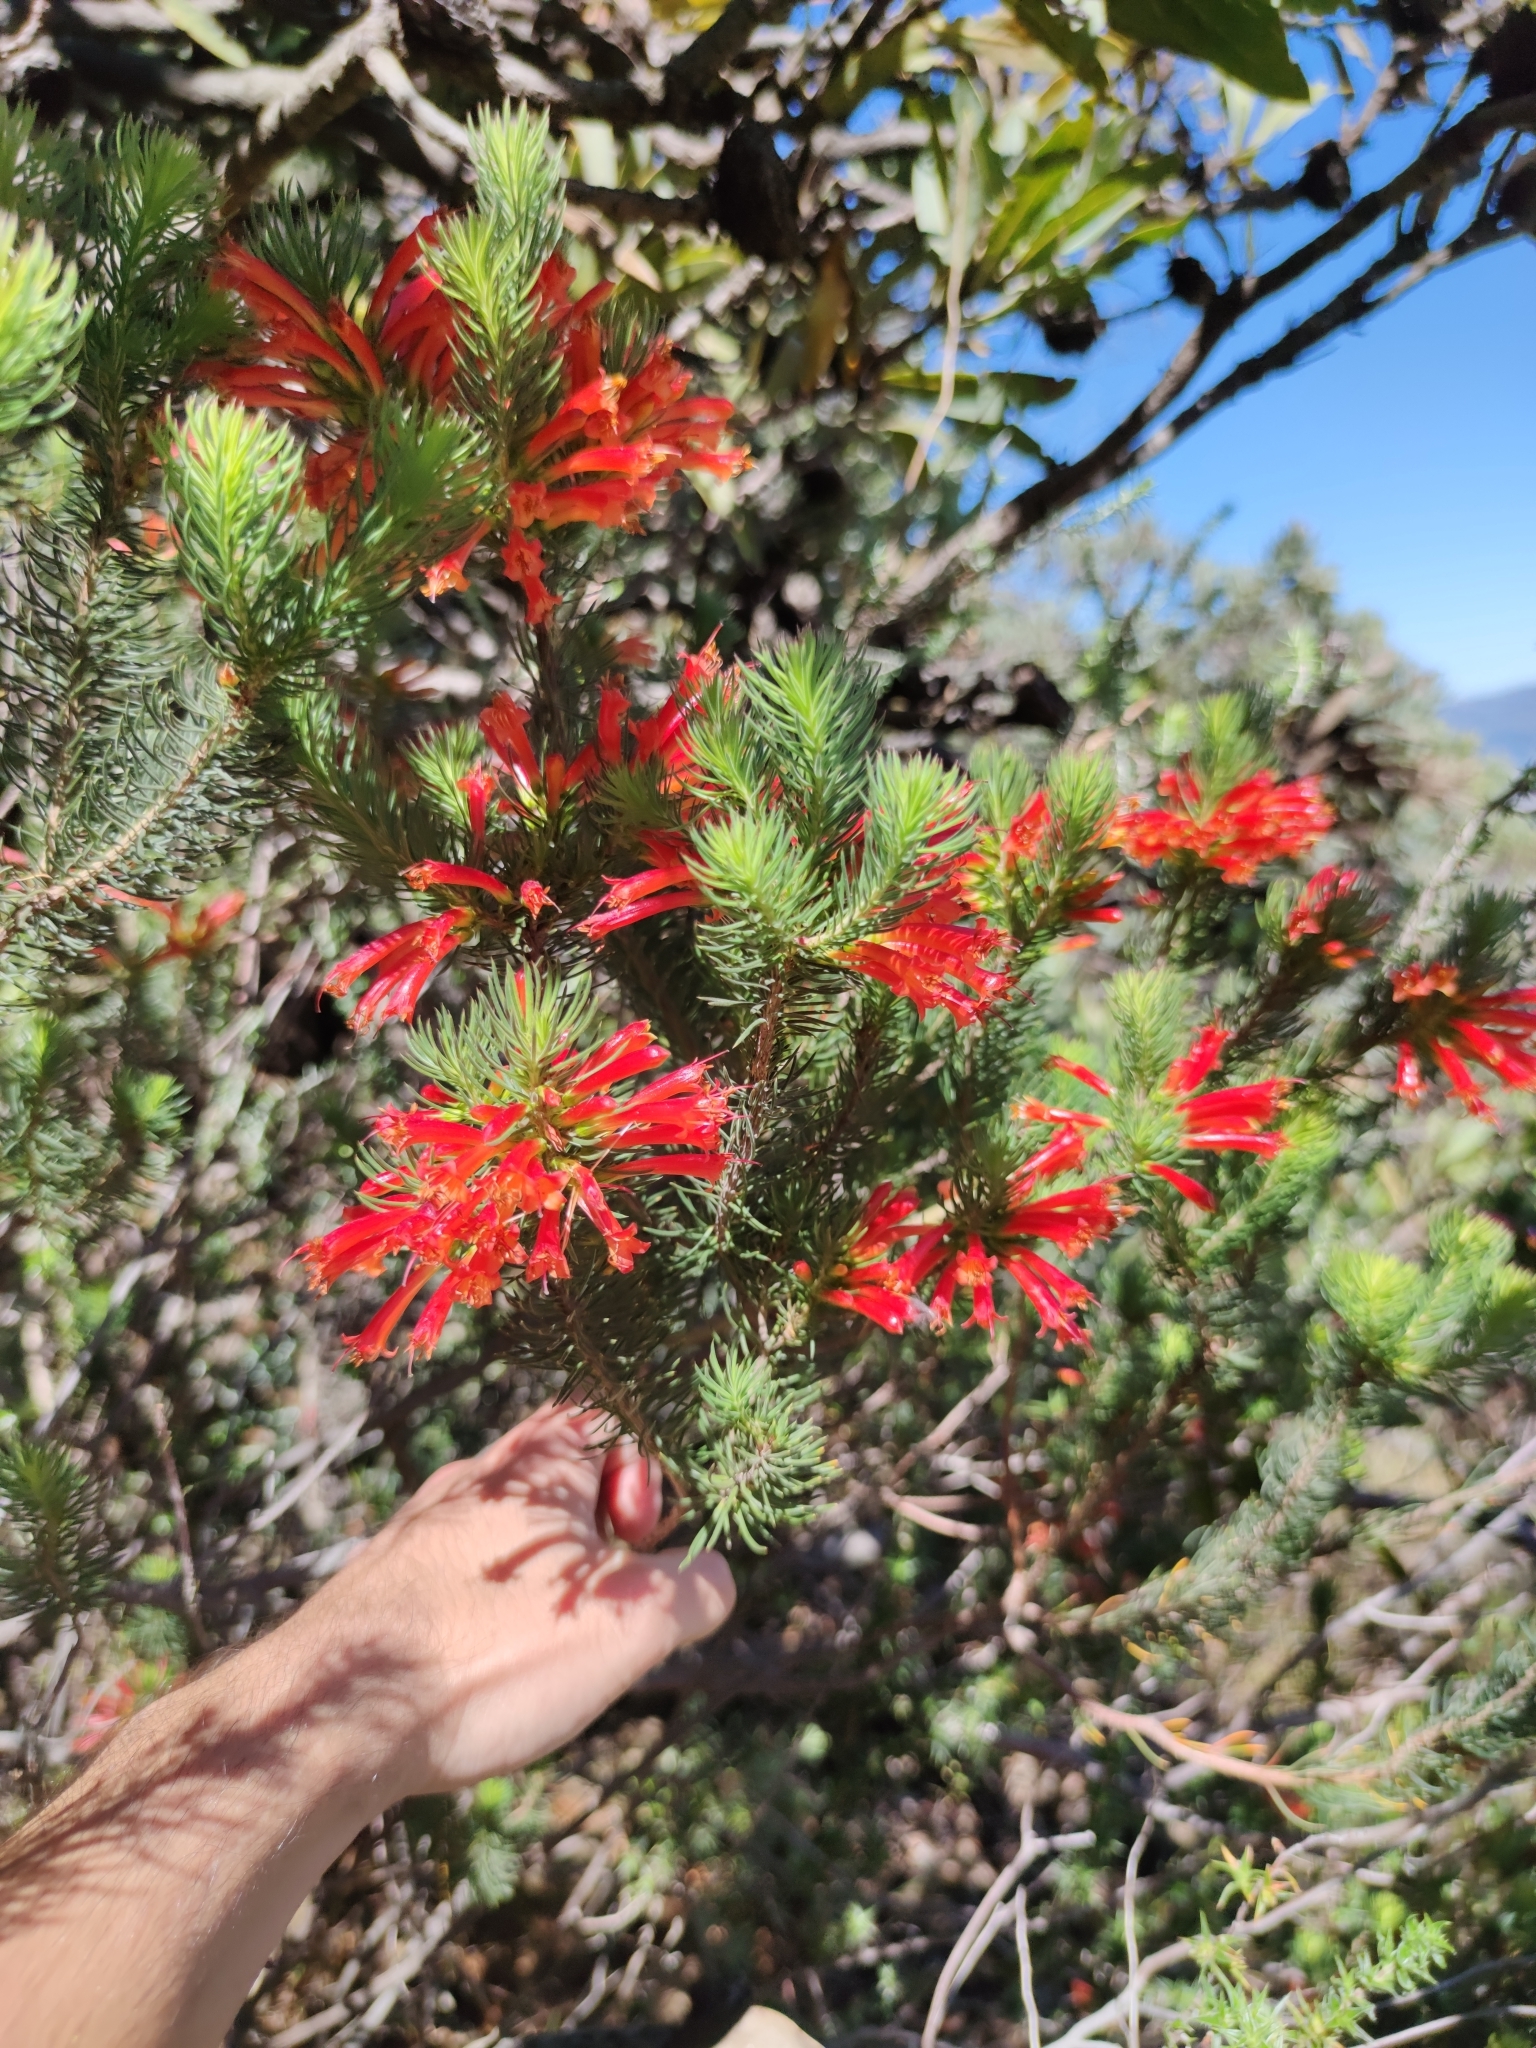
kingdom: Plantae
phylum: Tracheophyta
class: Magnoliopsida
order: Ericales
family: Ericaceae
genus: Erica
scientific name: Erica grandiflora
